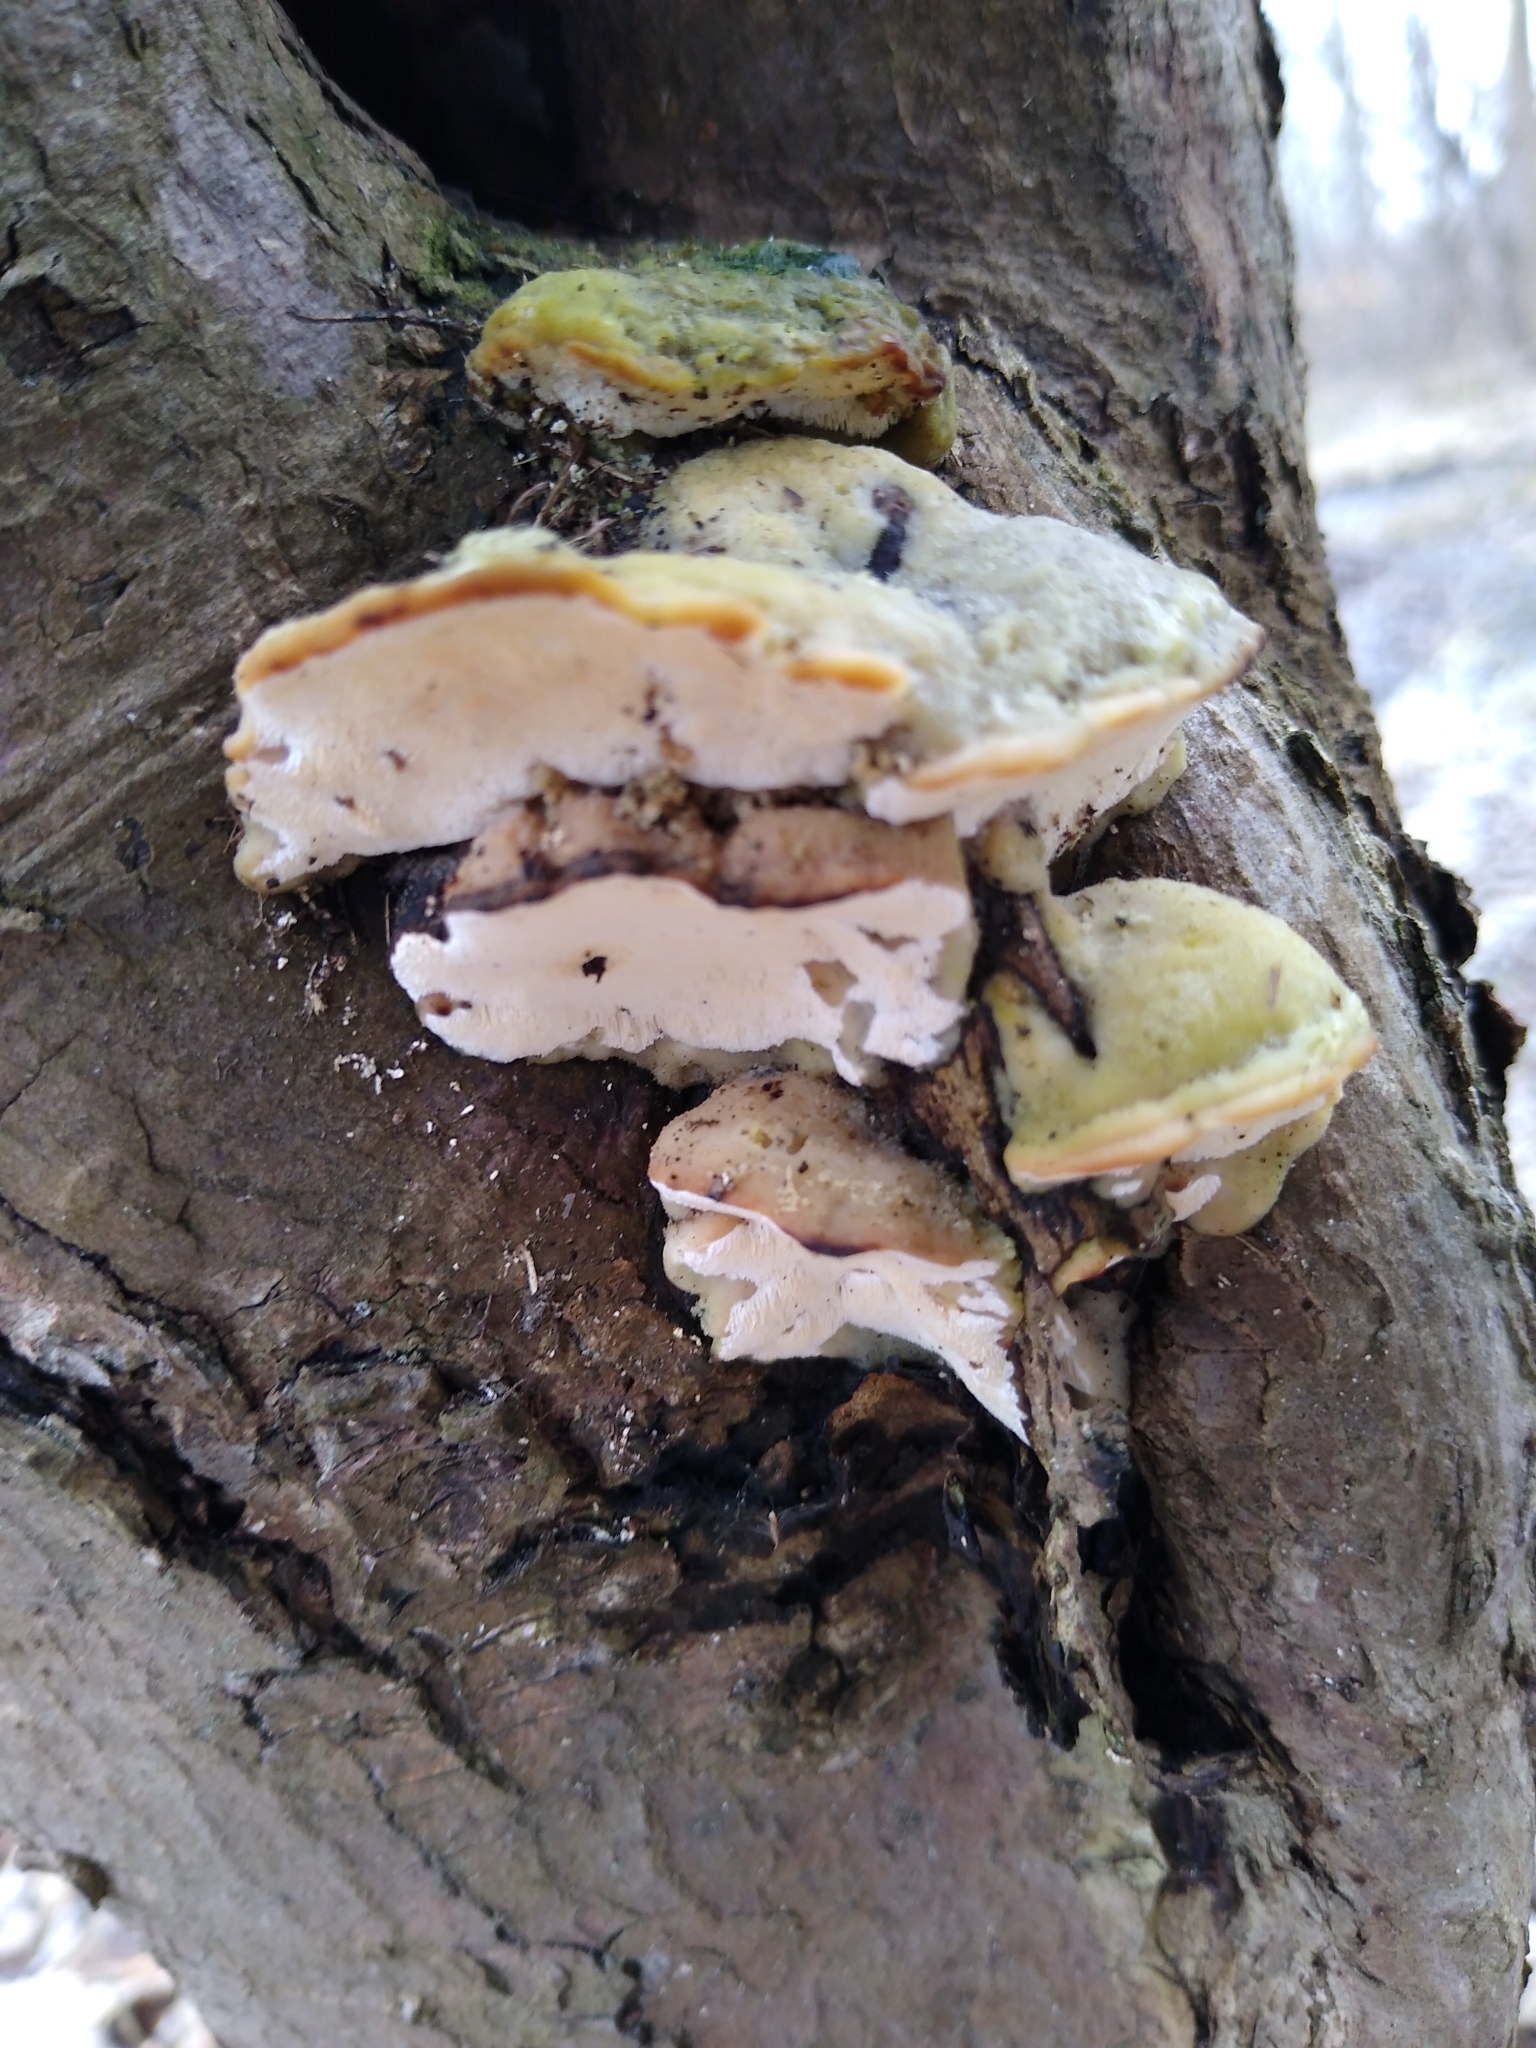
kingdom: Fungi
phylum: Basidiomycota
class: Agaricomycetes
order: Hymenochaetales
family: Oxyporaceae
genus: Oxyporus
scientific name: Oxyporus populinus
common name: Poplar bracket
